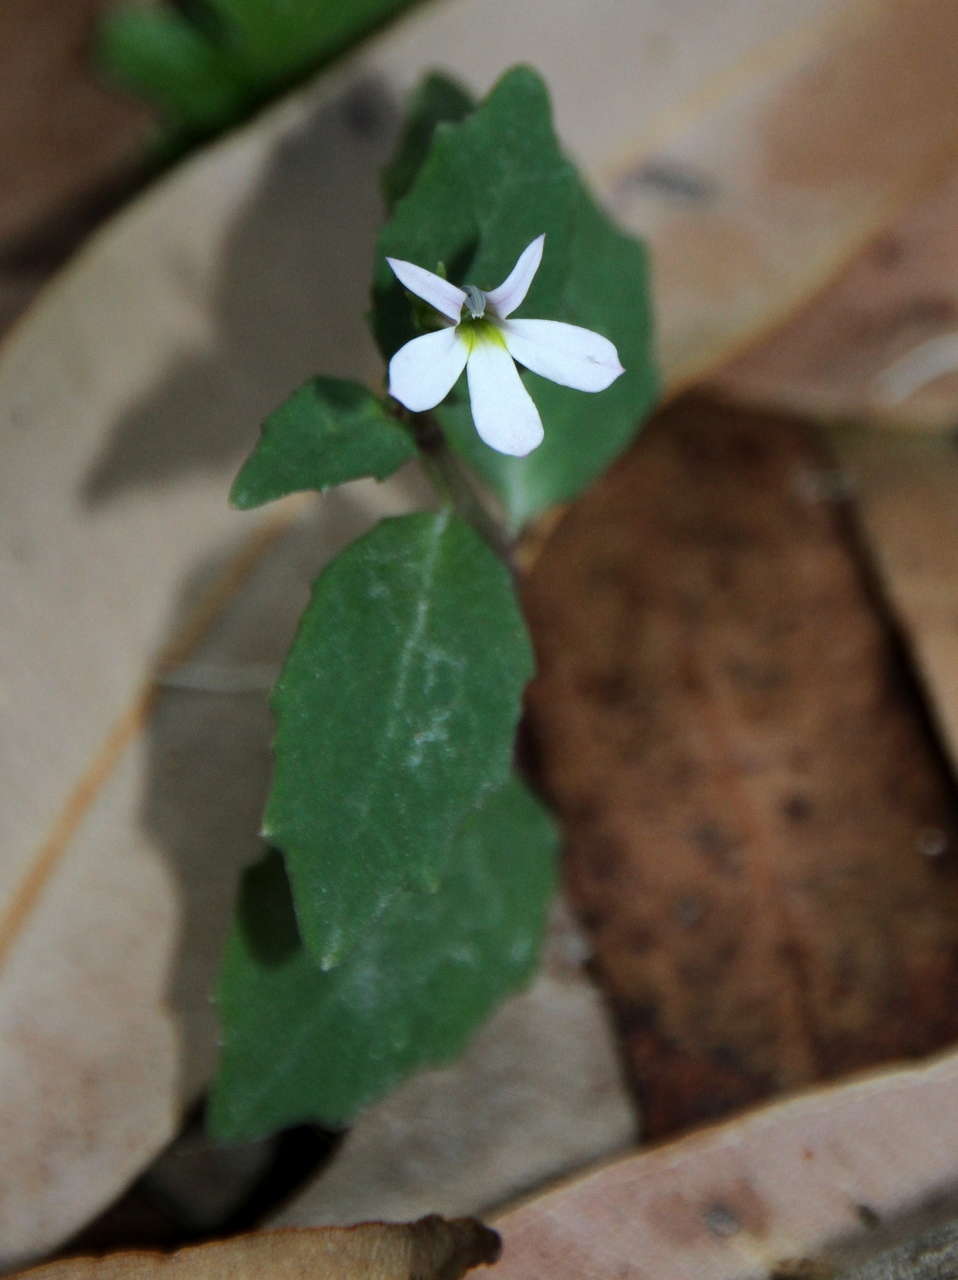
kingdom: Plantae
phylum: Tracheophyta
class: Magnoliopsida
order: Asterales
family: Campanulaceae
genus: Lobelia
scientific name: Lobelia purpurascens
